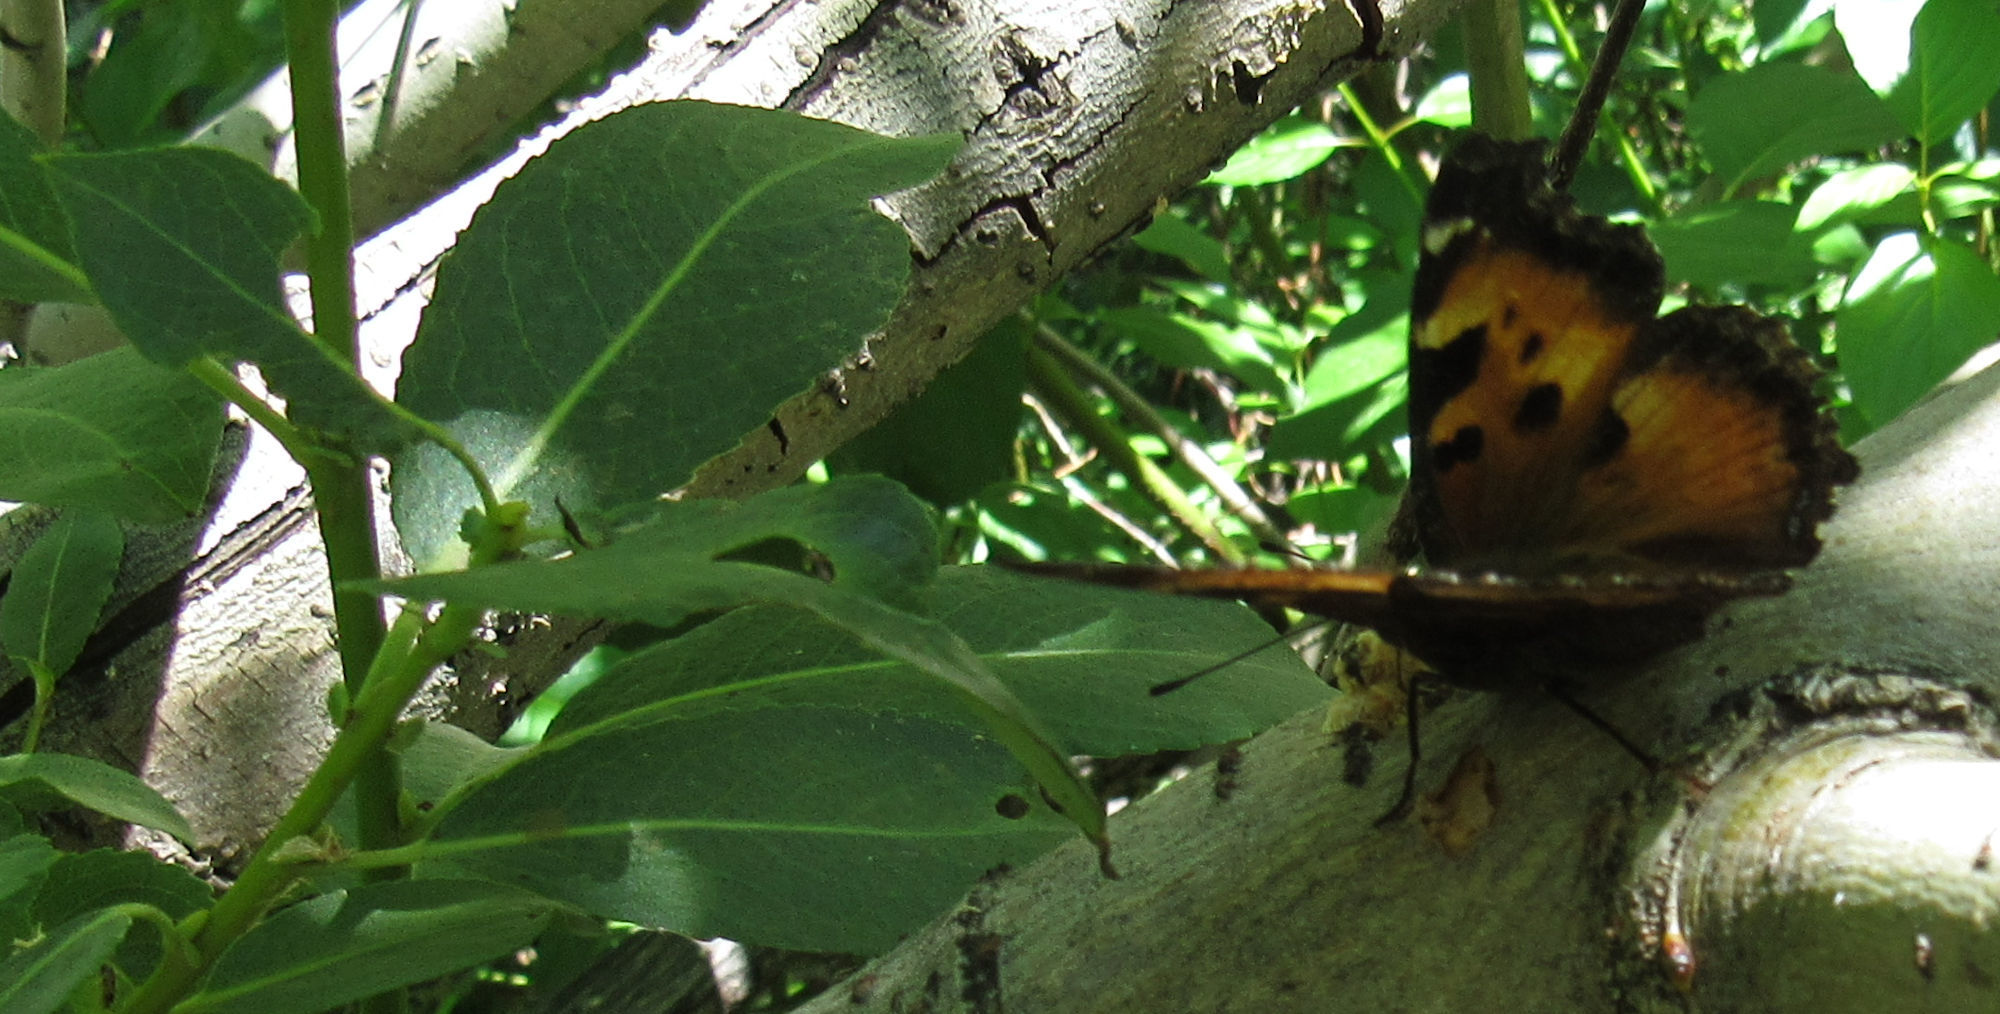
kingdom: Animalia
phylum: Arthropoda
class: Insecta
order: Lepidoptera
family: Nymphalidae
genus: Nymphalis
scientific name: Nymphalis californica
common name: California tortoiseshell
